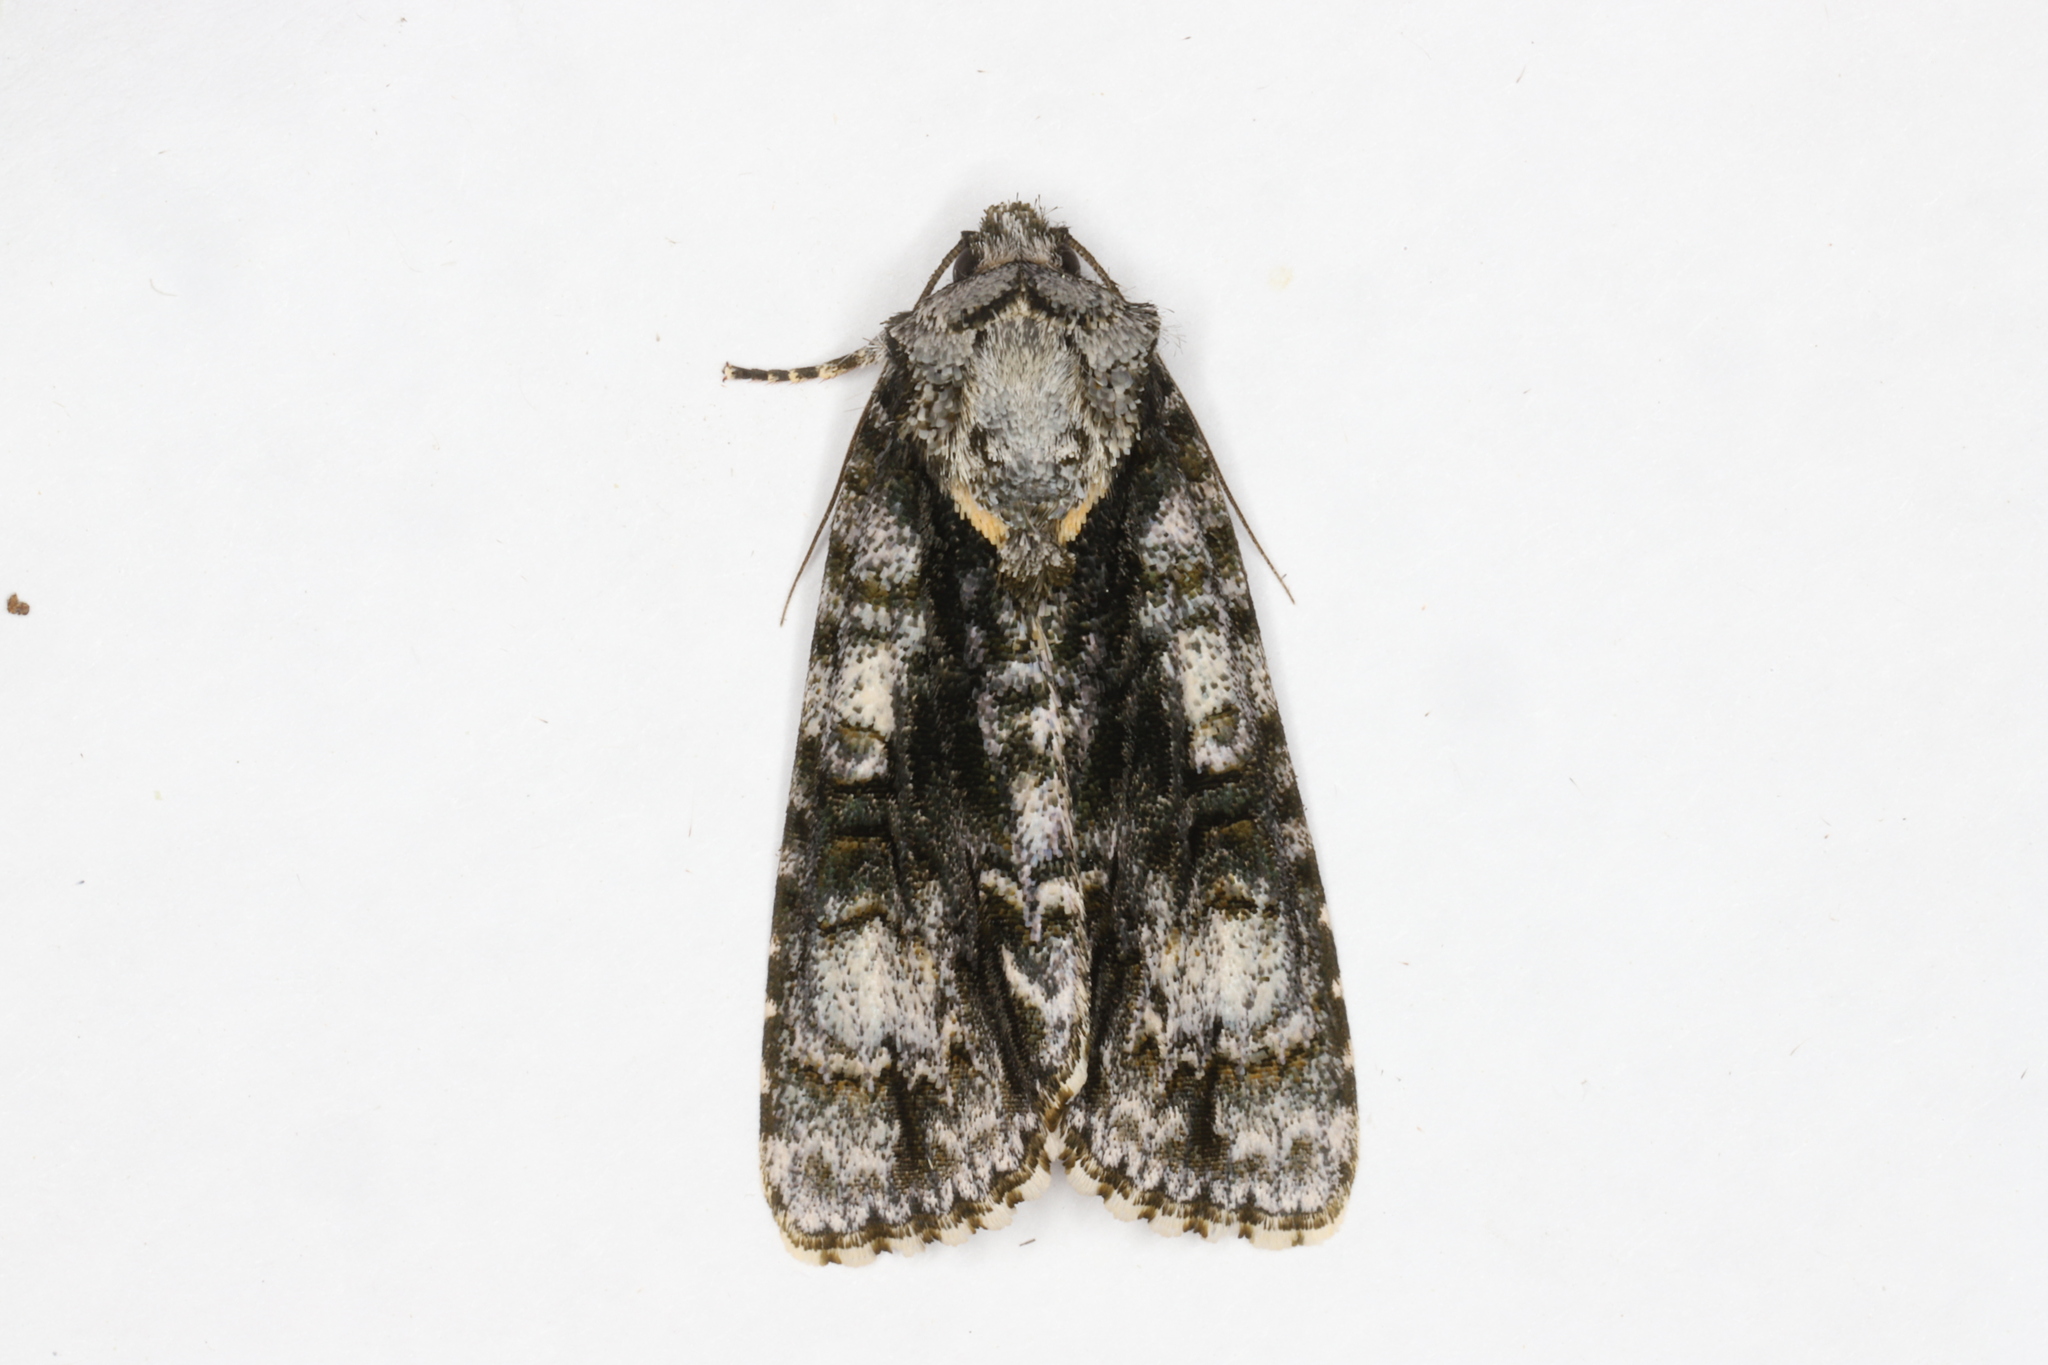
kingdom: Animalia
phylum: Arthropoda
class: Insecta
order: Lepidoptera
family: Noctuidae
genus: Acronicta
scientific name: Acronicta superans
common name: Splendid dagger
